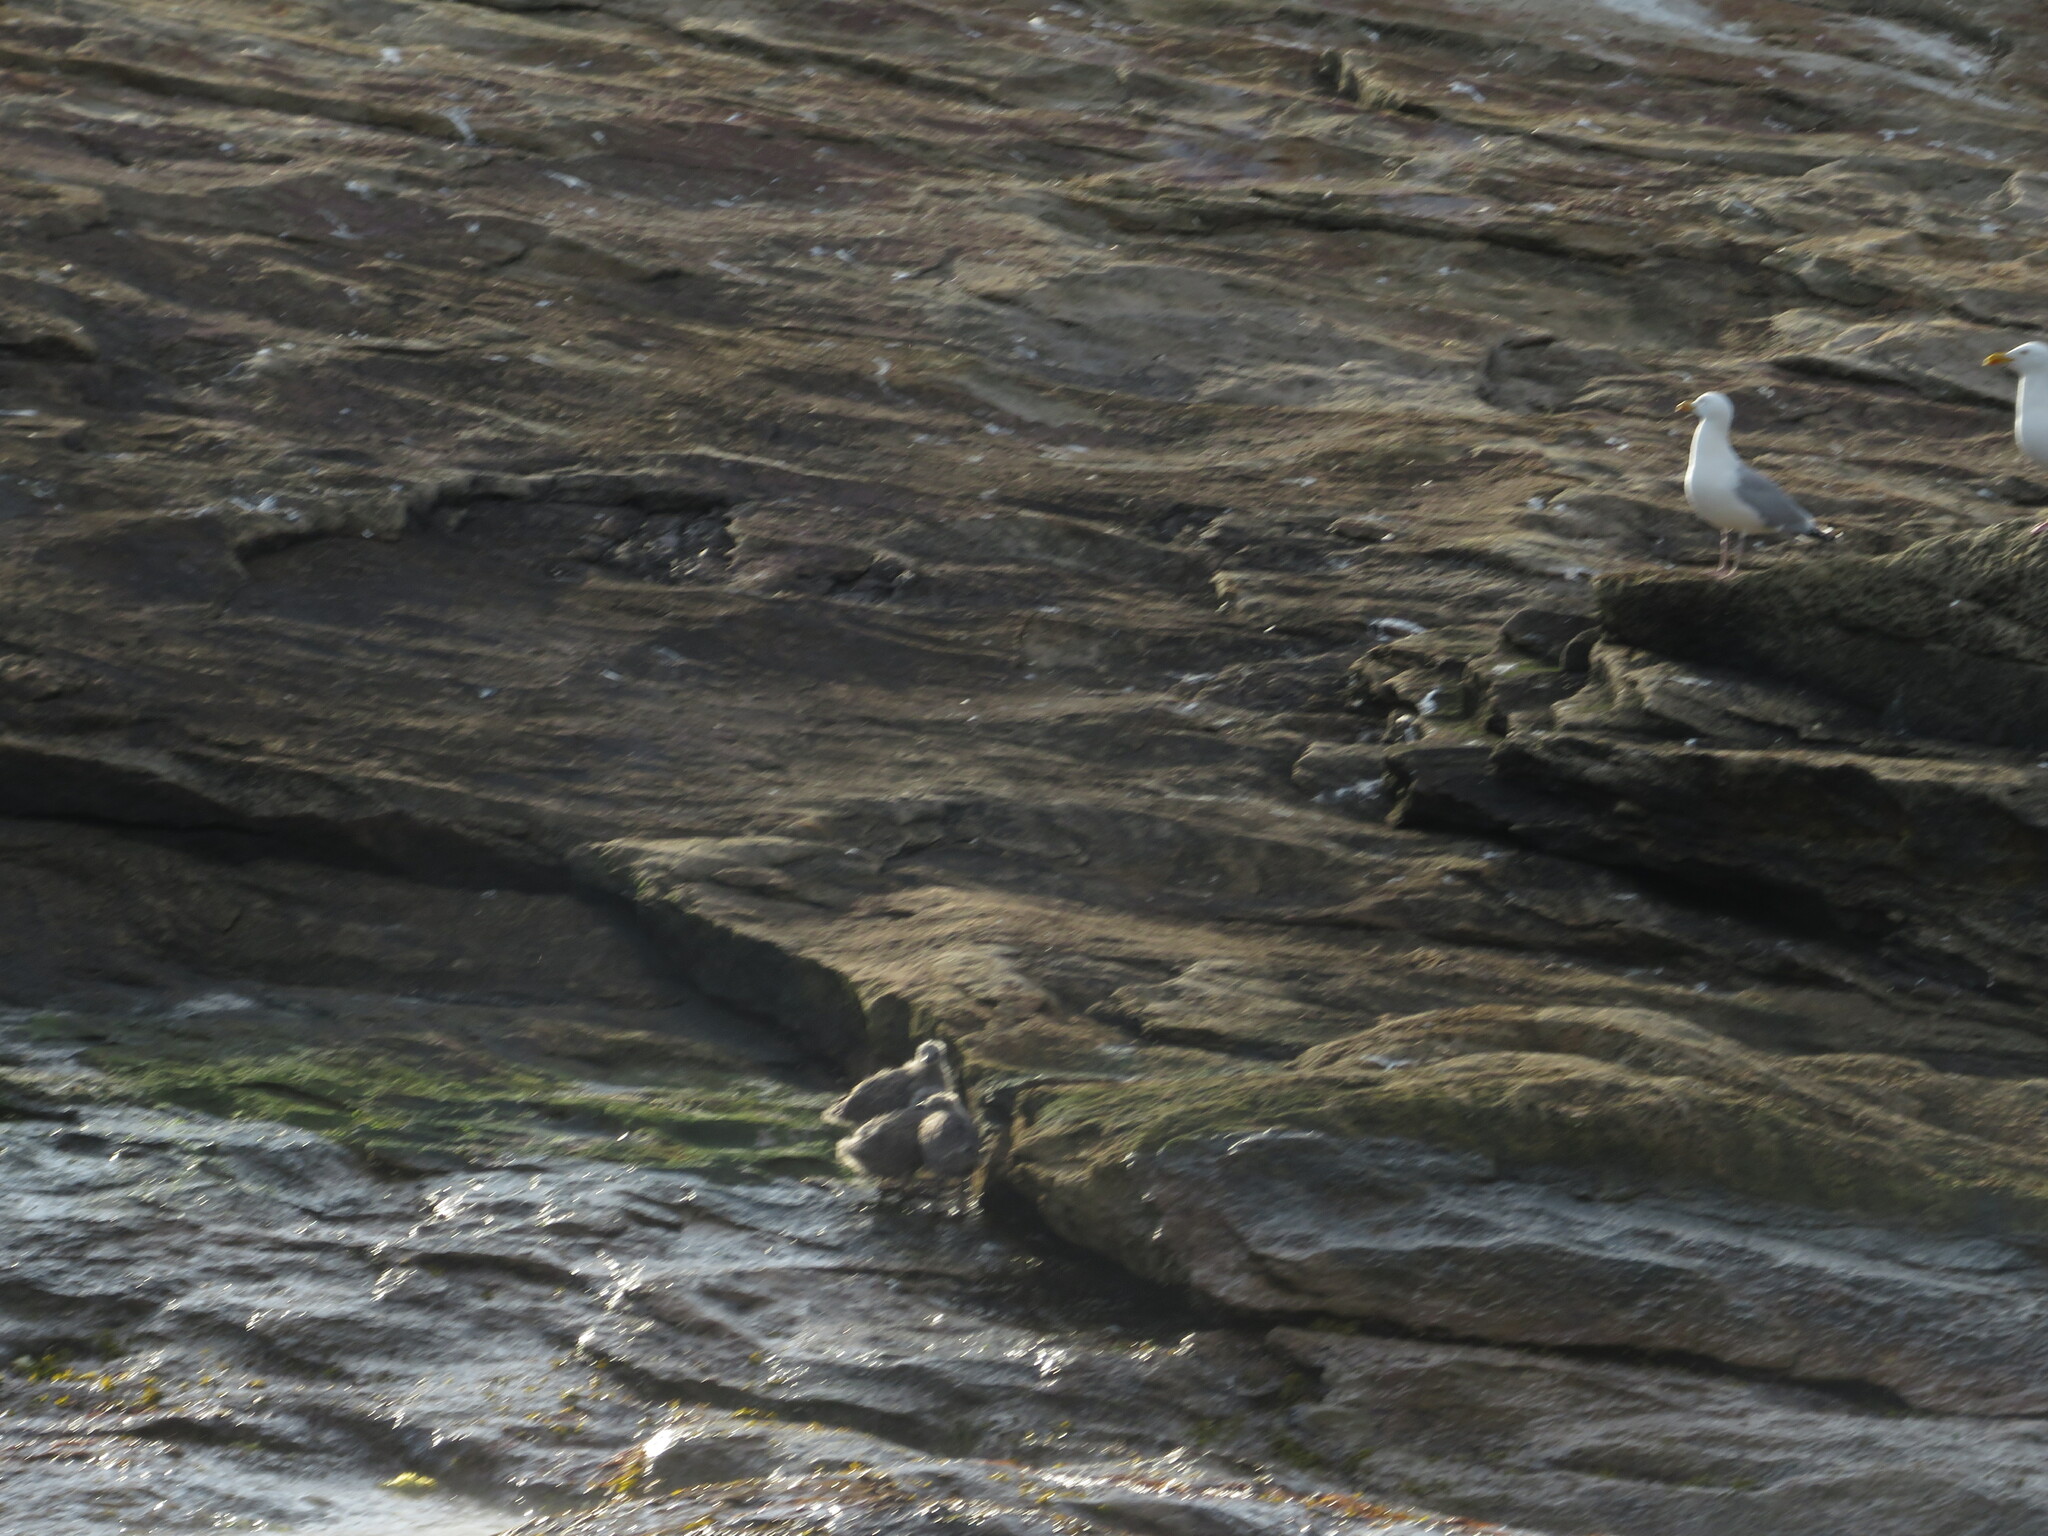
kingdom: Animalia
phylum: Chordata
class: Aves
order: Charadriiformes
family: Laridae
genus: Larus
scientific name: Larus argentatus
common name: Herring gull
